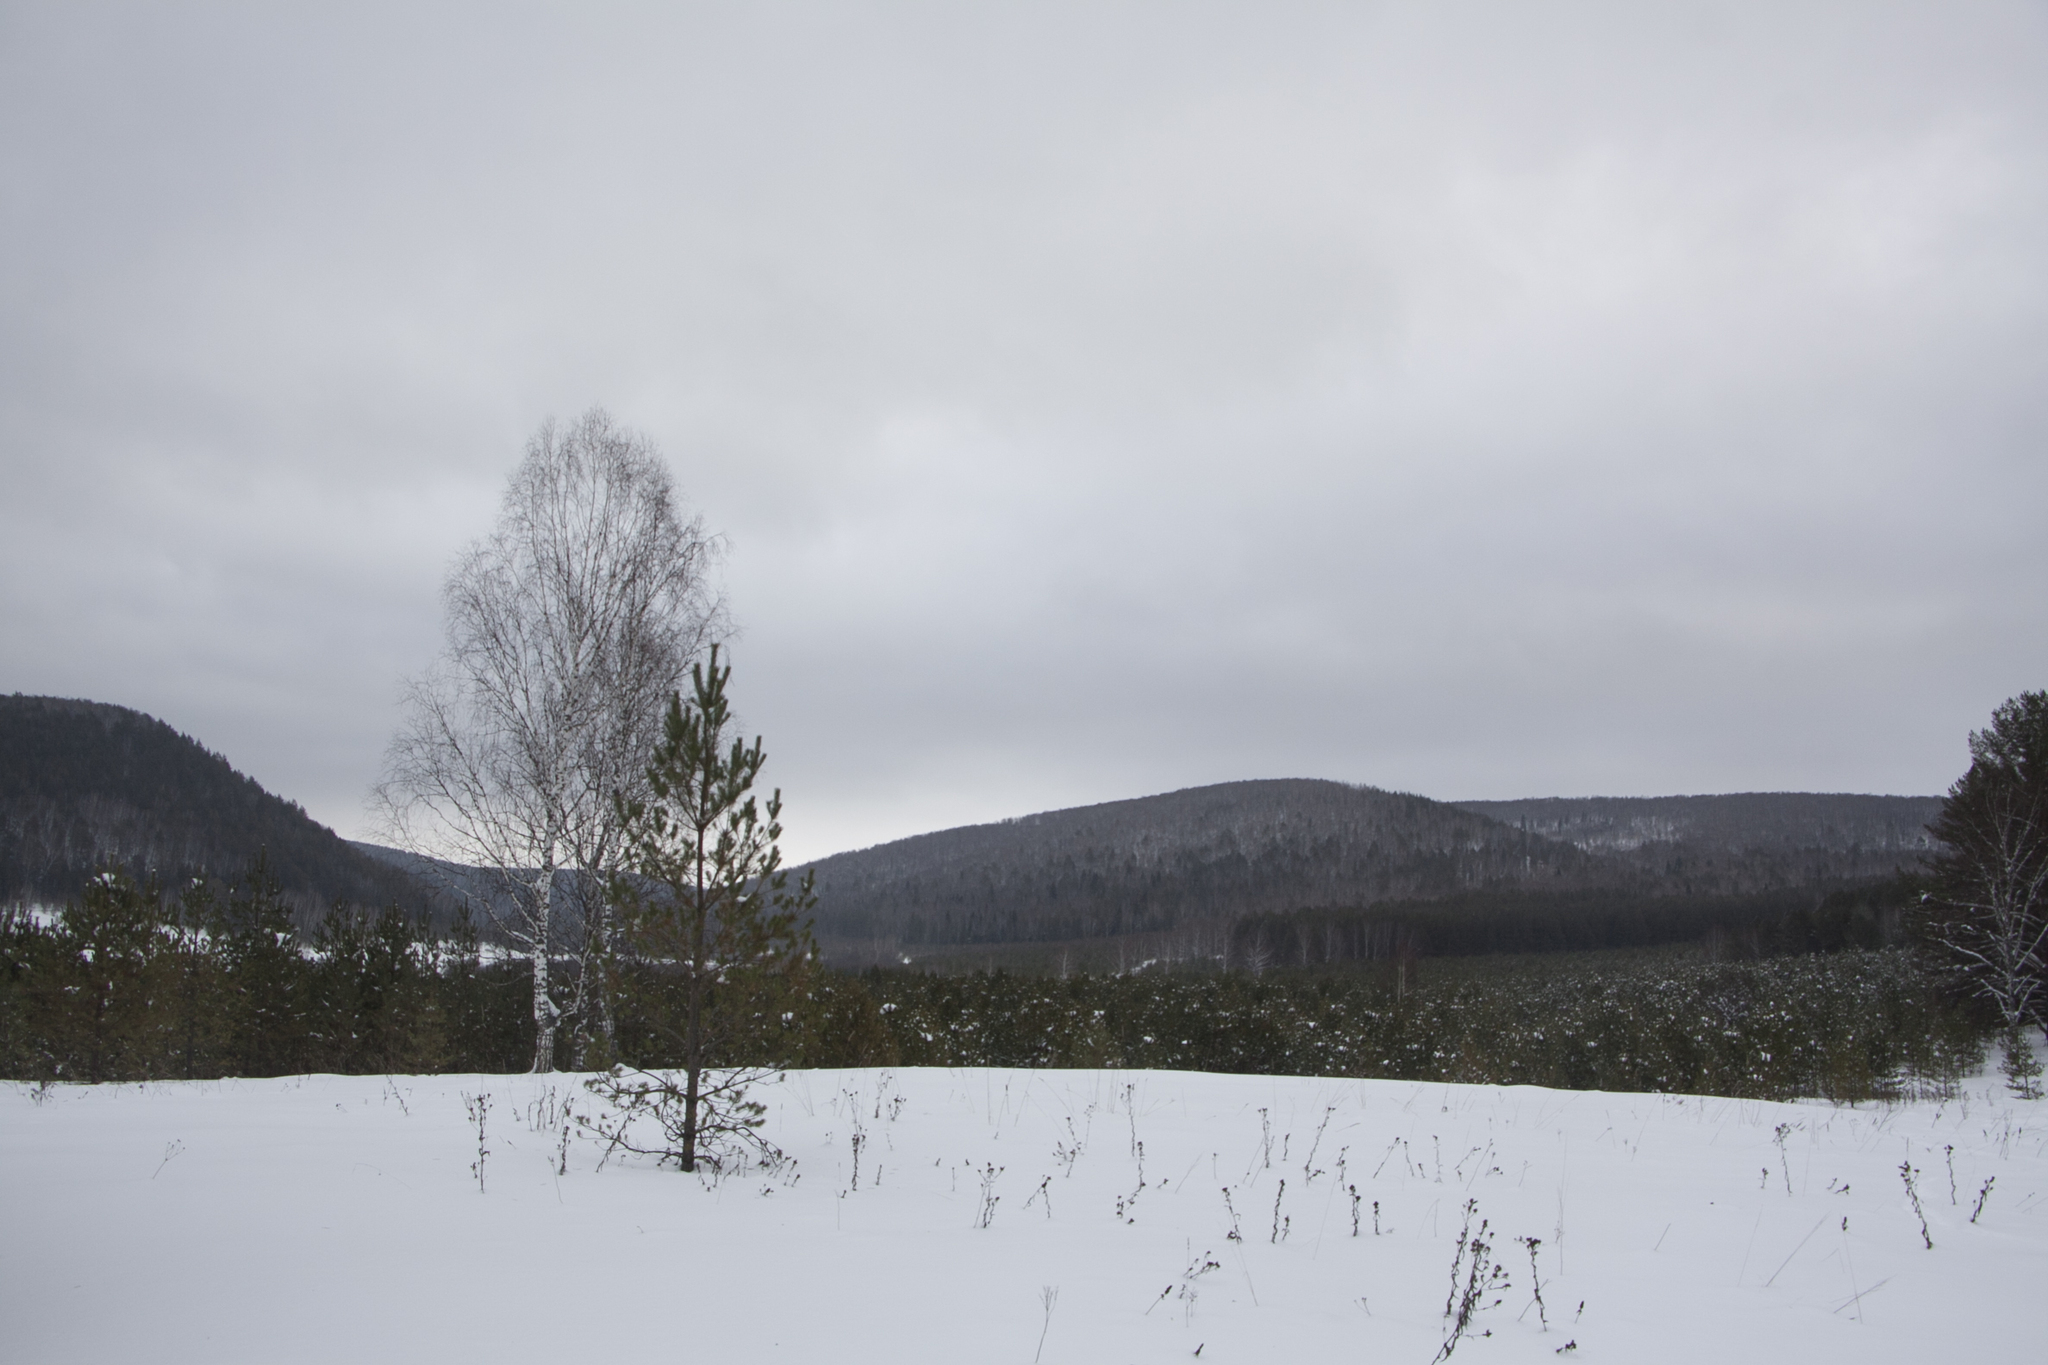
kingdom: Plantae
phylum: Tracheophyta
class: Magnoliopsida
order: Fagales
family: Betulaceae
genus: Betula
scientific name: Betula pendula
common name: Silver birch
